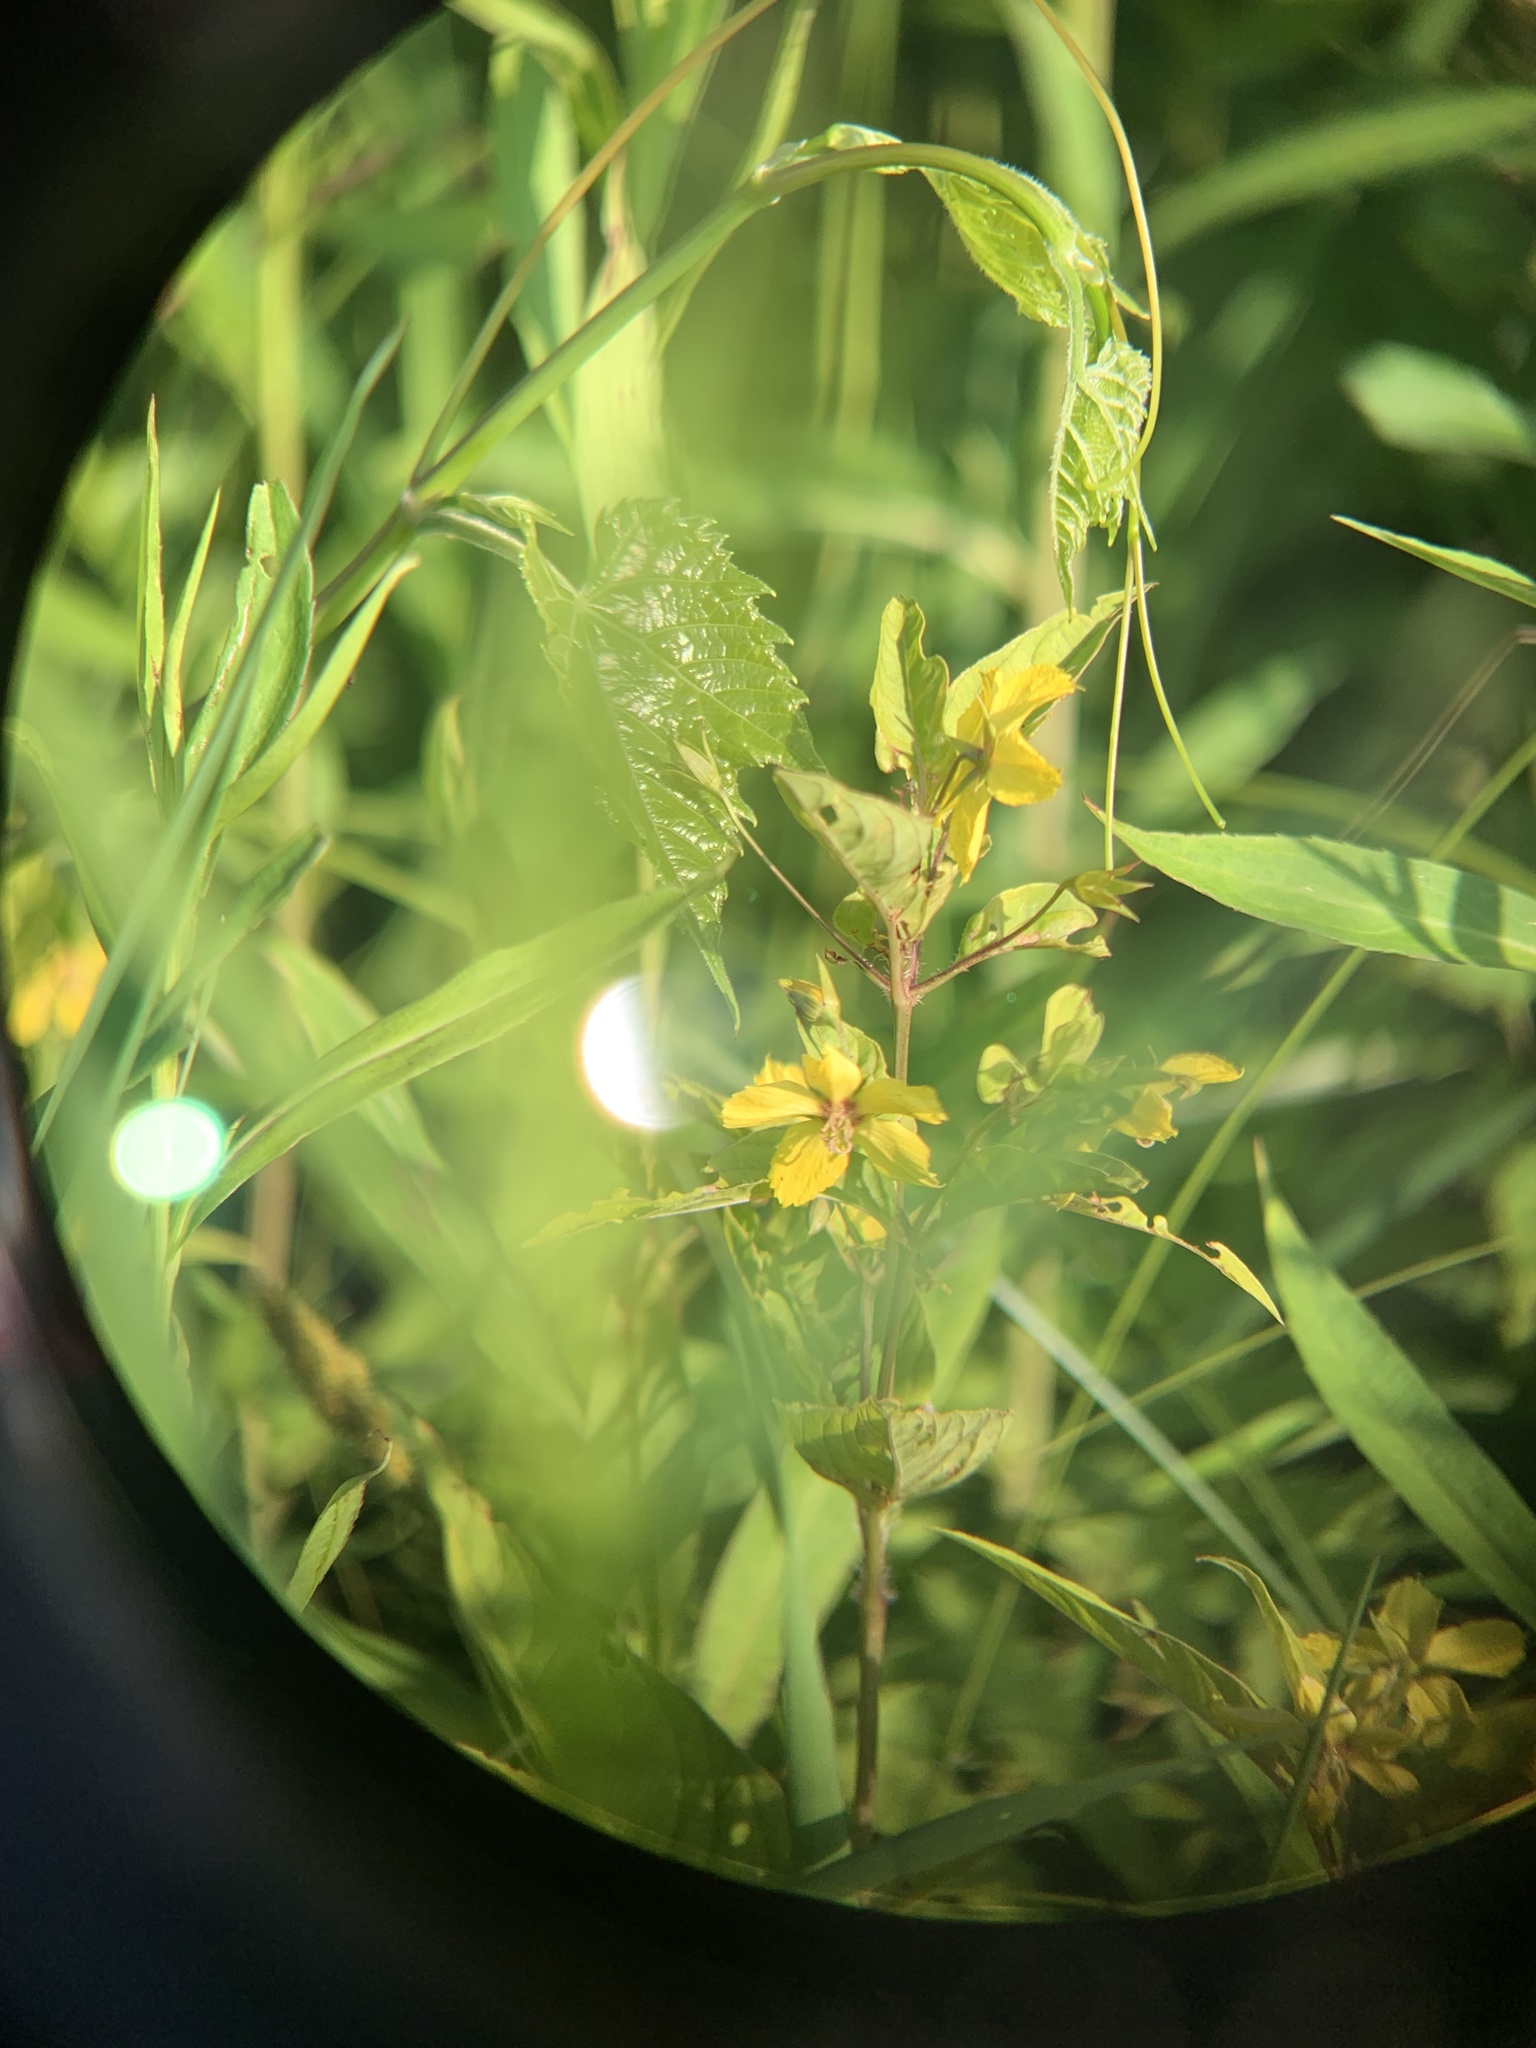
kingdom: Plantae
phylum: Tracheophyta
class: Magnoliopsida
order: Ericales
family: Primulaceae
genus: Lysimachia
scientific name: Lysimachia ciliata
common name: Fringed loosestrife
